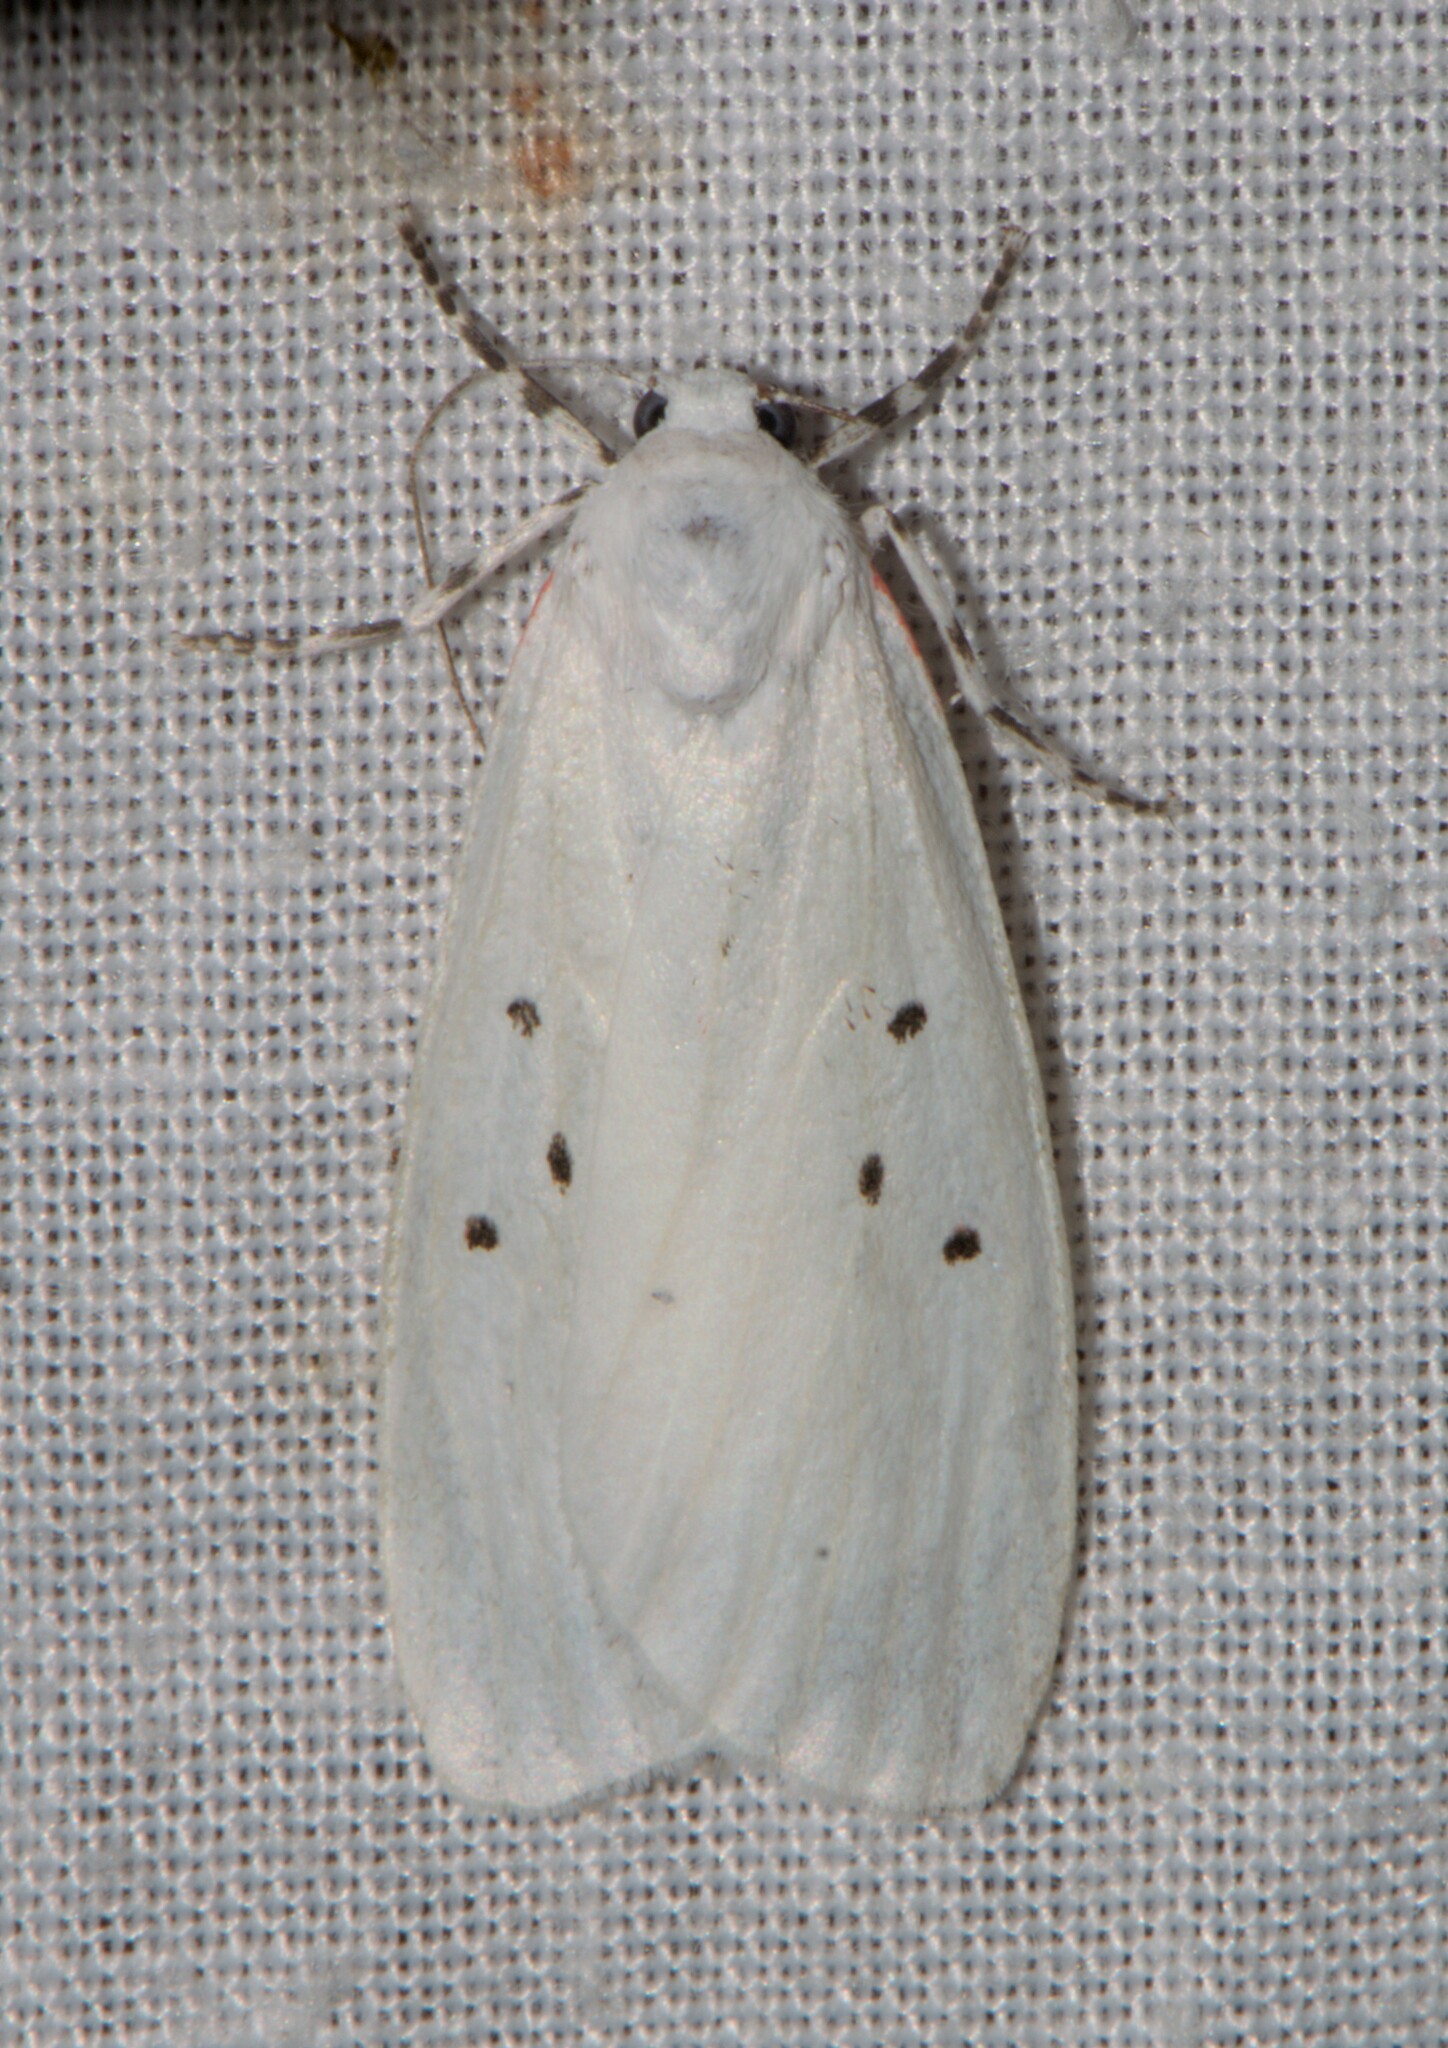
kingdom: Animalia
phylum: Arthropoda
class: Insecta
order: Lepidoptera
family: Erebidae
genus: Cyana
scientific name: Cyana candida
